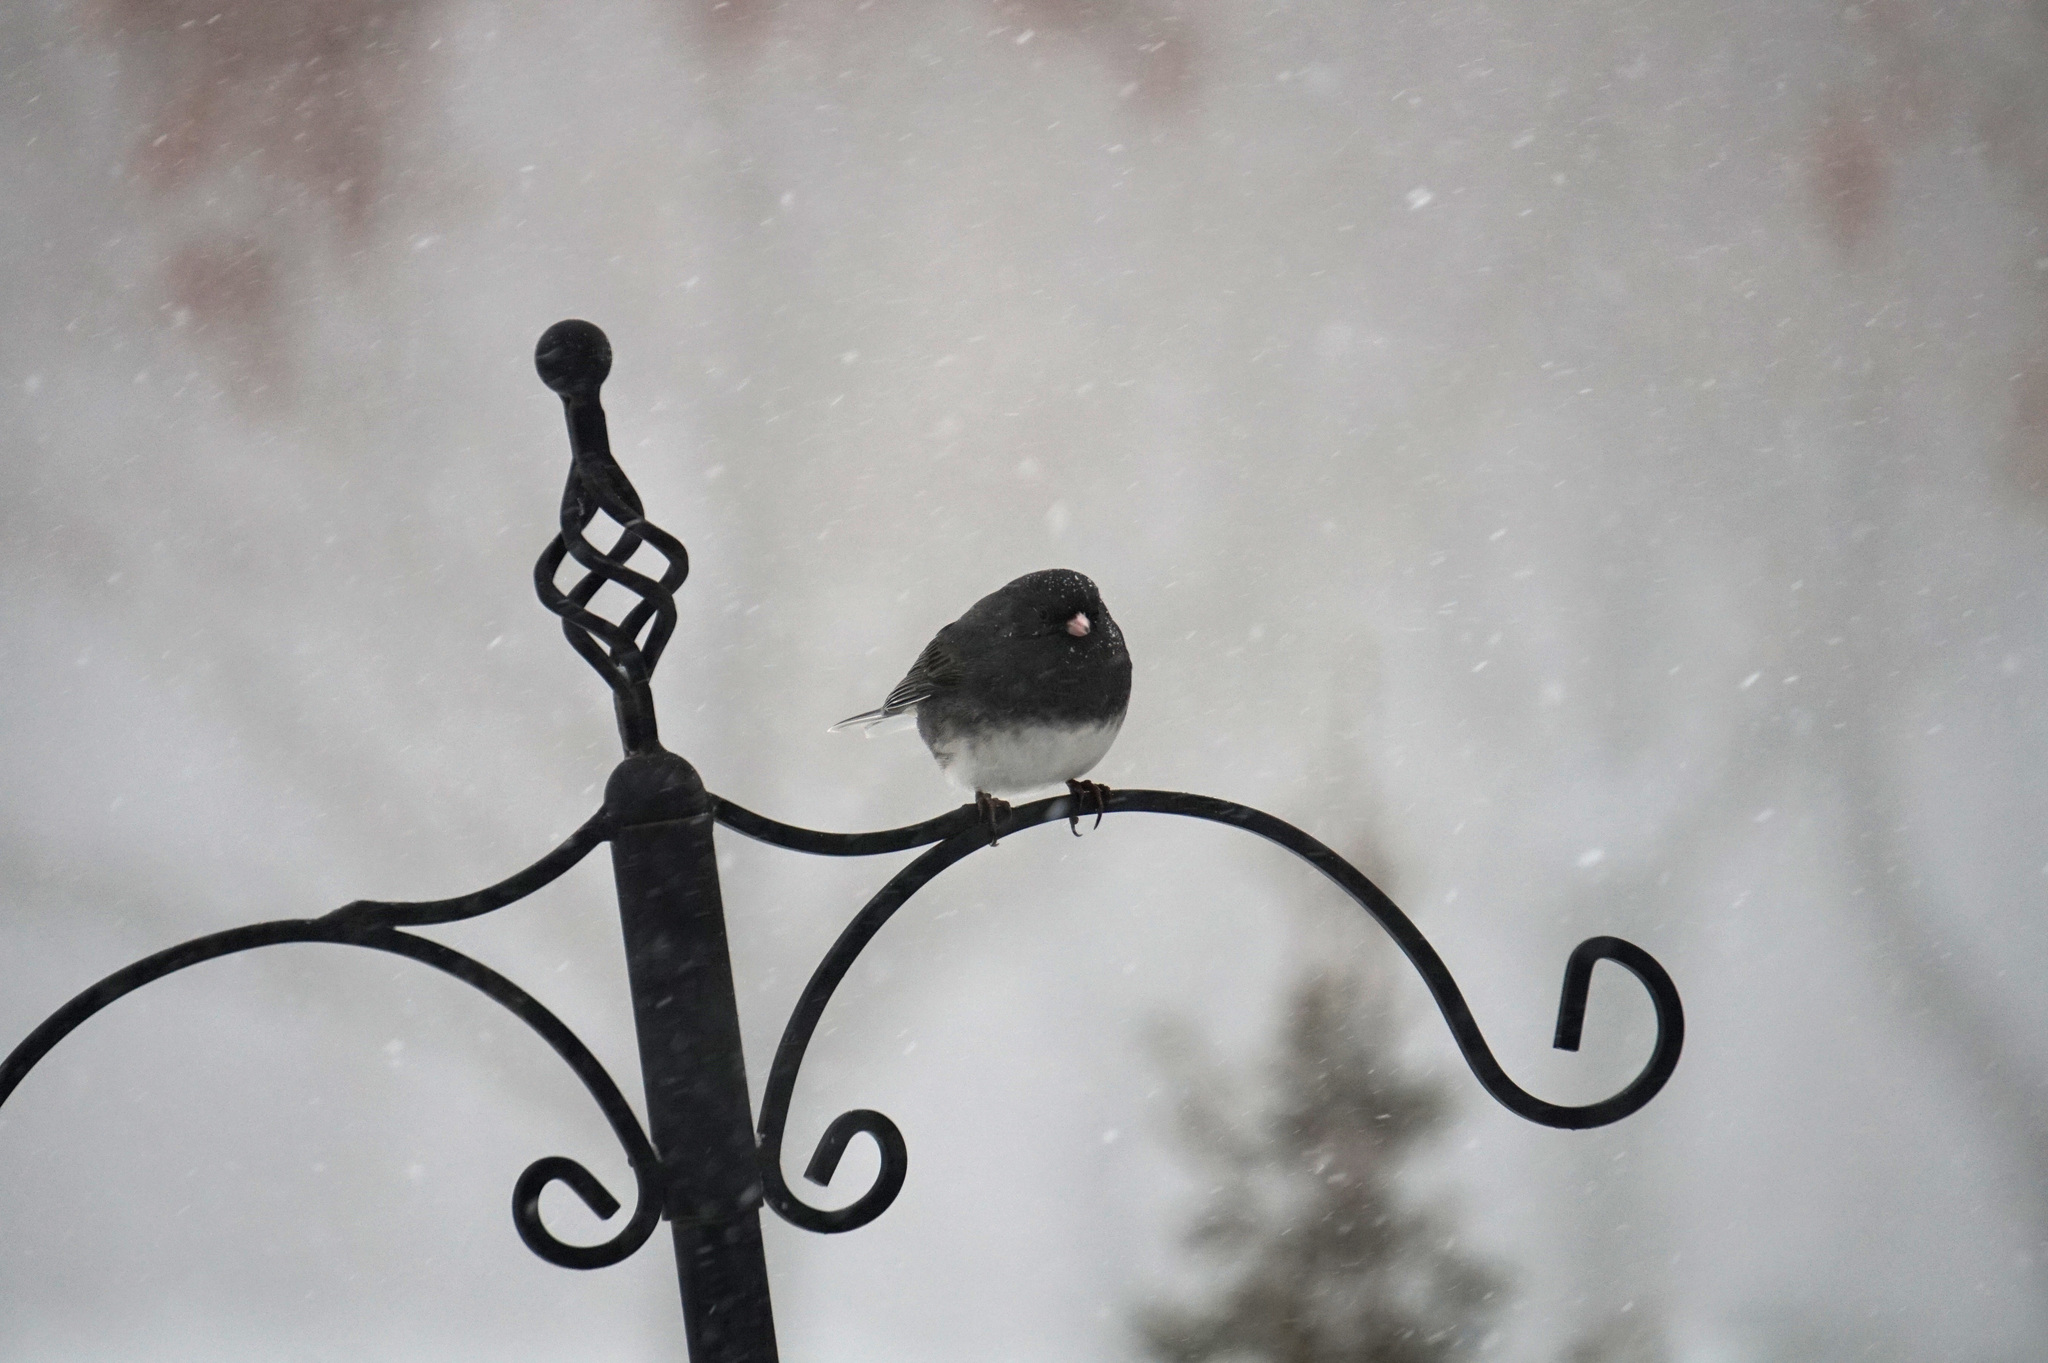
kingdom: Animalia
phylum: Chordata
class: Aves
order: Passeriformes
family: Passerellidae
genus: Junco
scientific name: Junco hyemalis
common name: Dark-eyed junco
